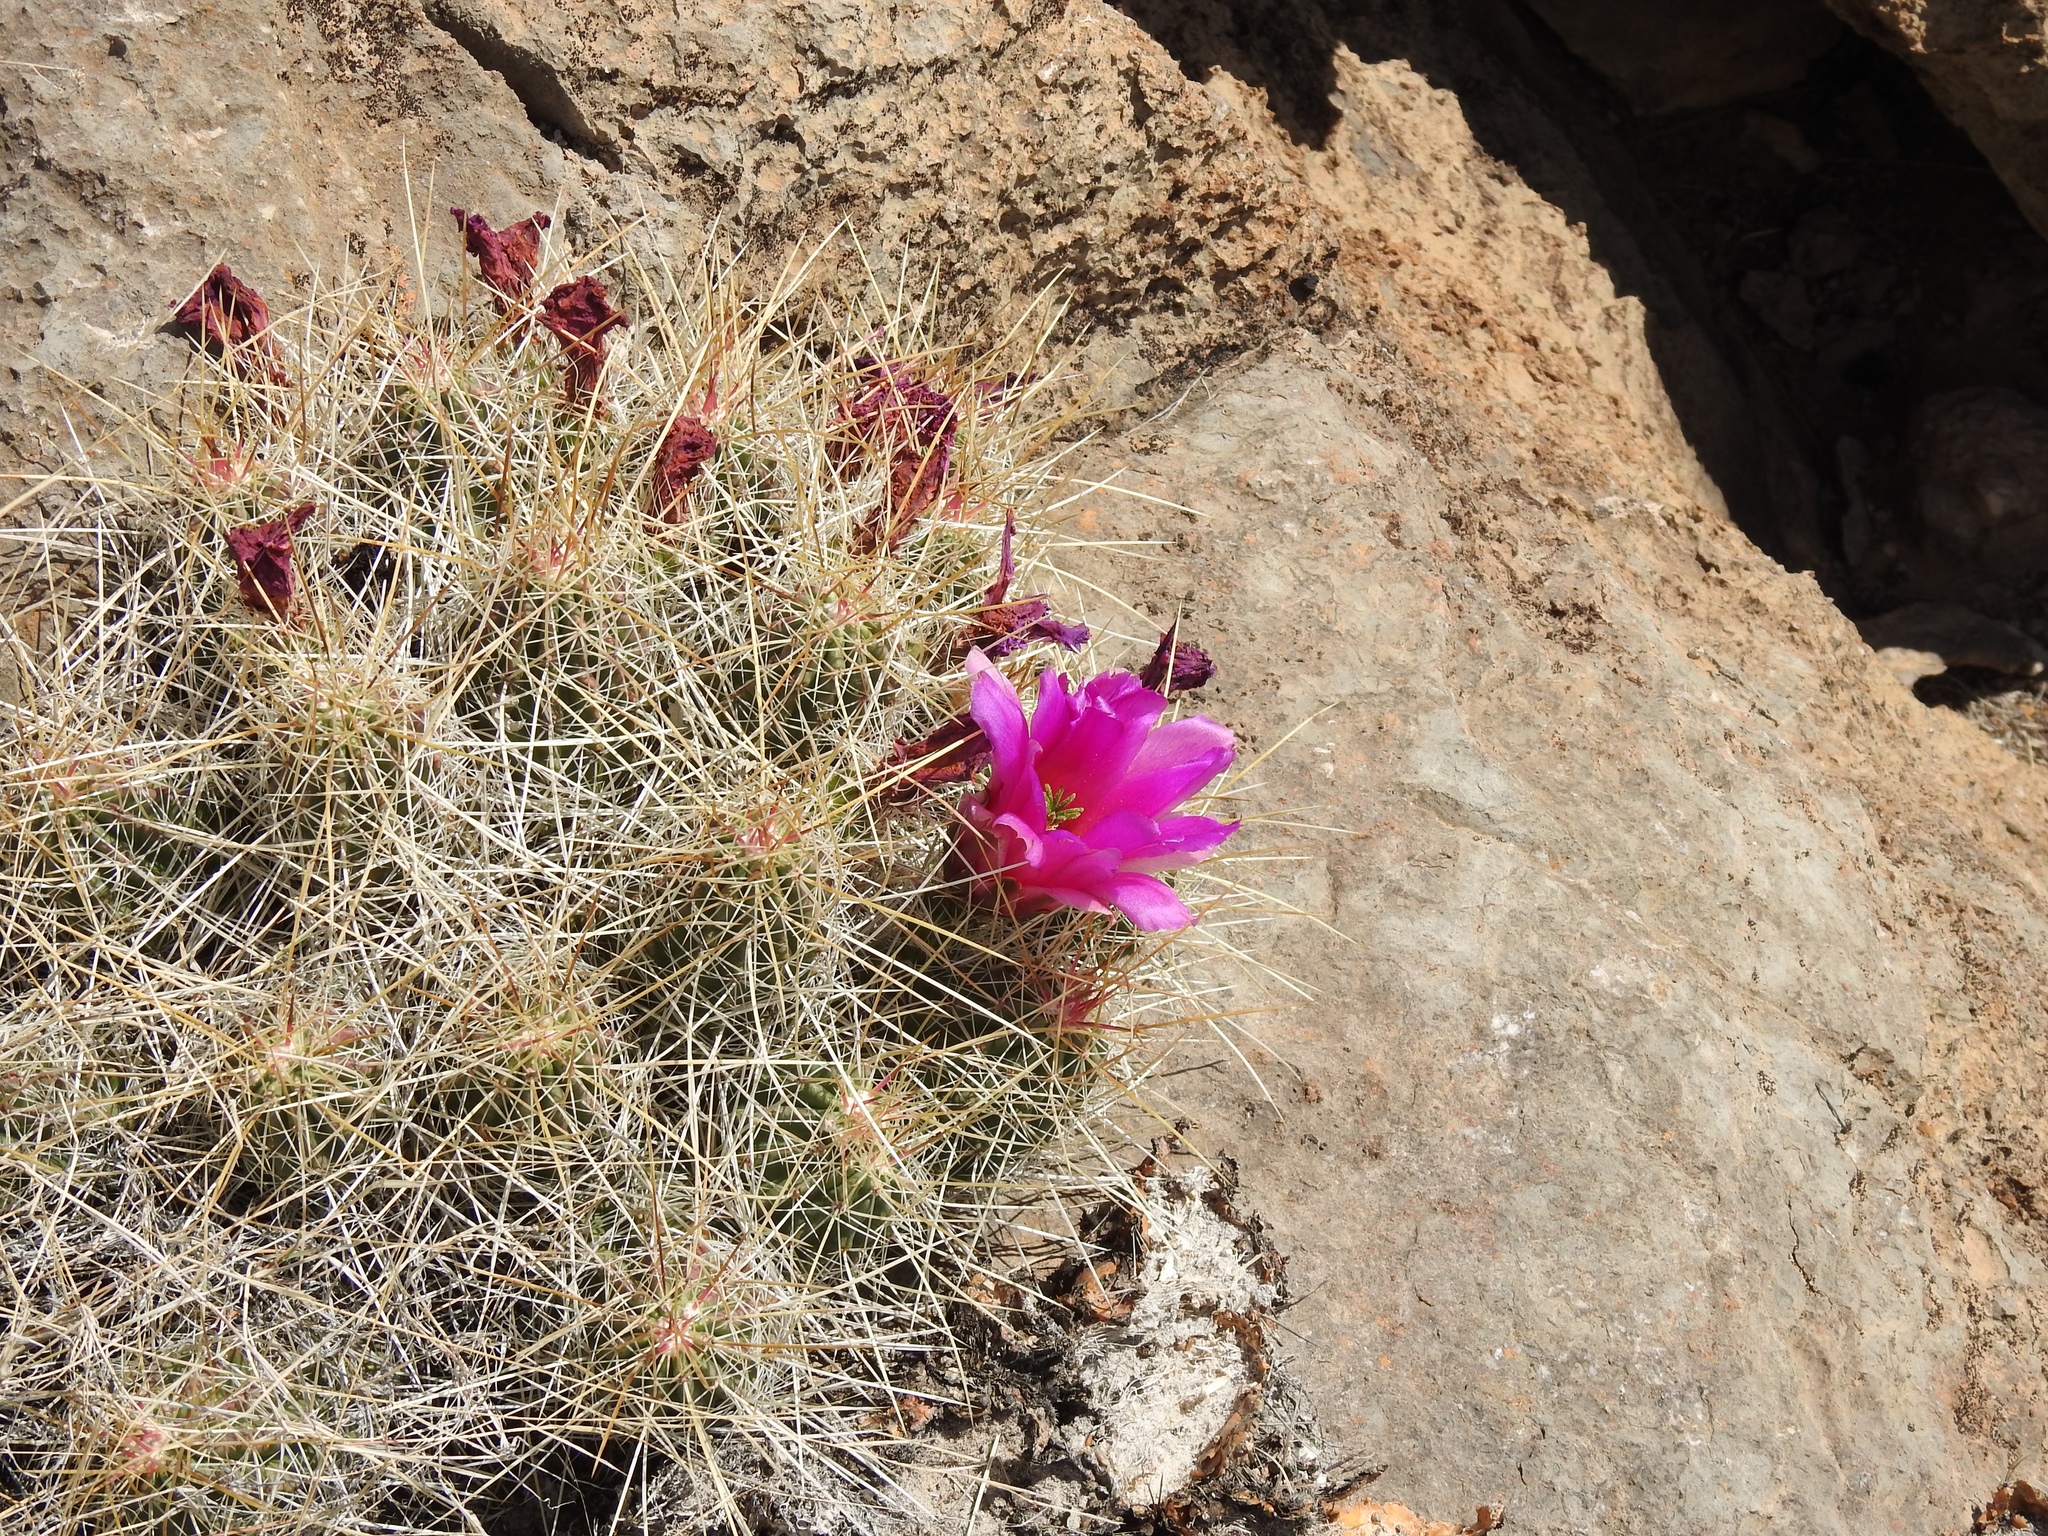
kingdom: Plantae
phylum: Tracheophyta
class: Magnoliopsida
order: Caryophyllales
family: Cactaceae
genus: Echinocereus
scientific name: Echinocereus stramineus
